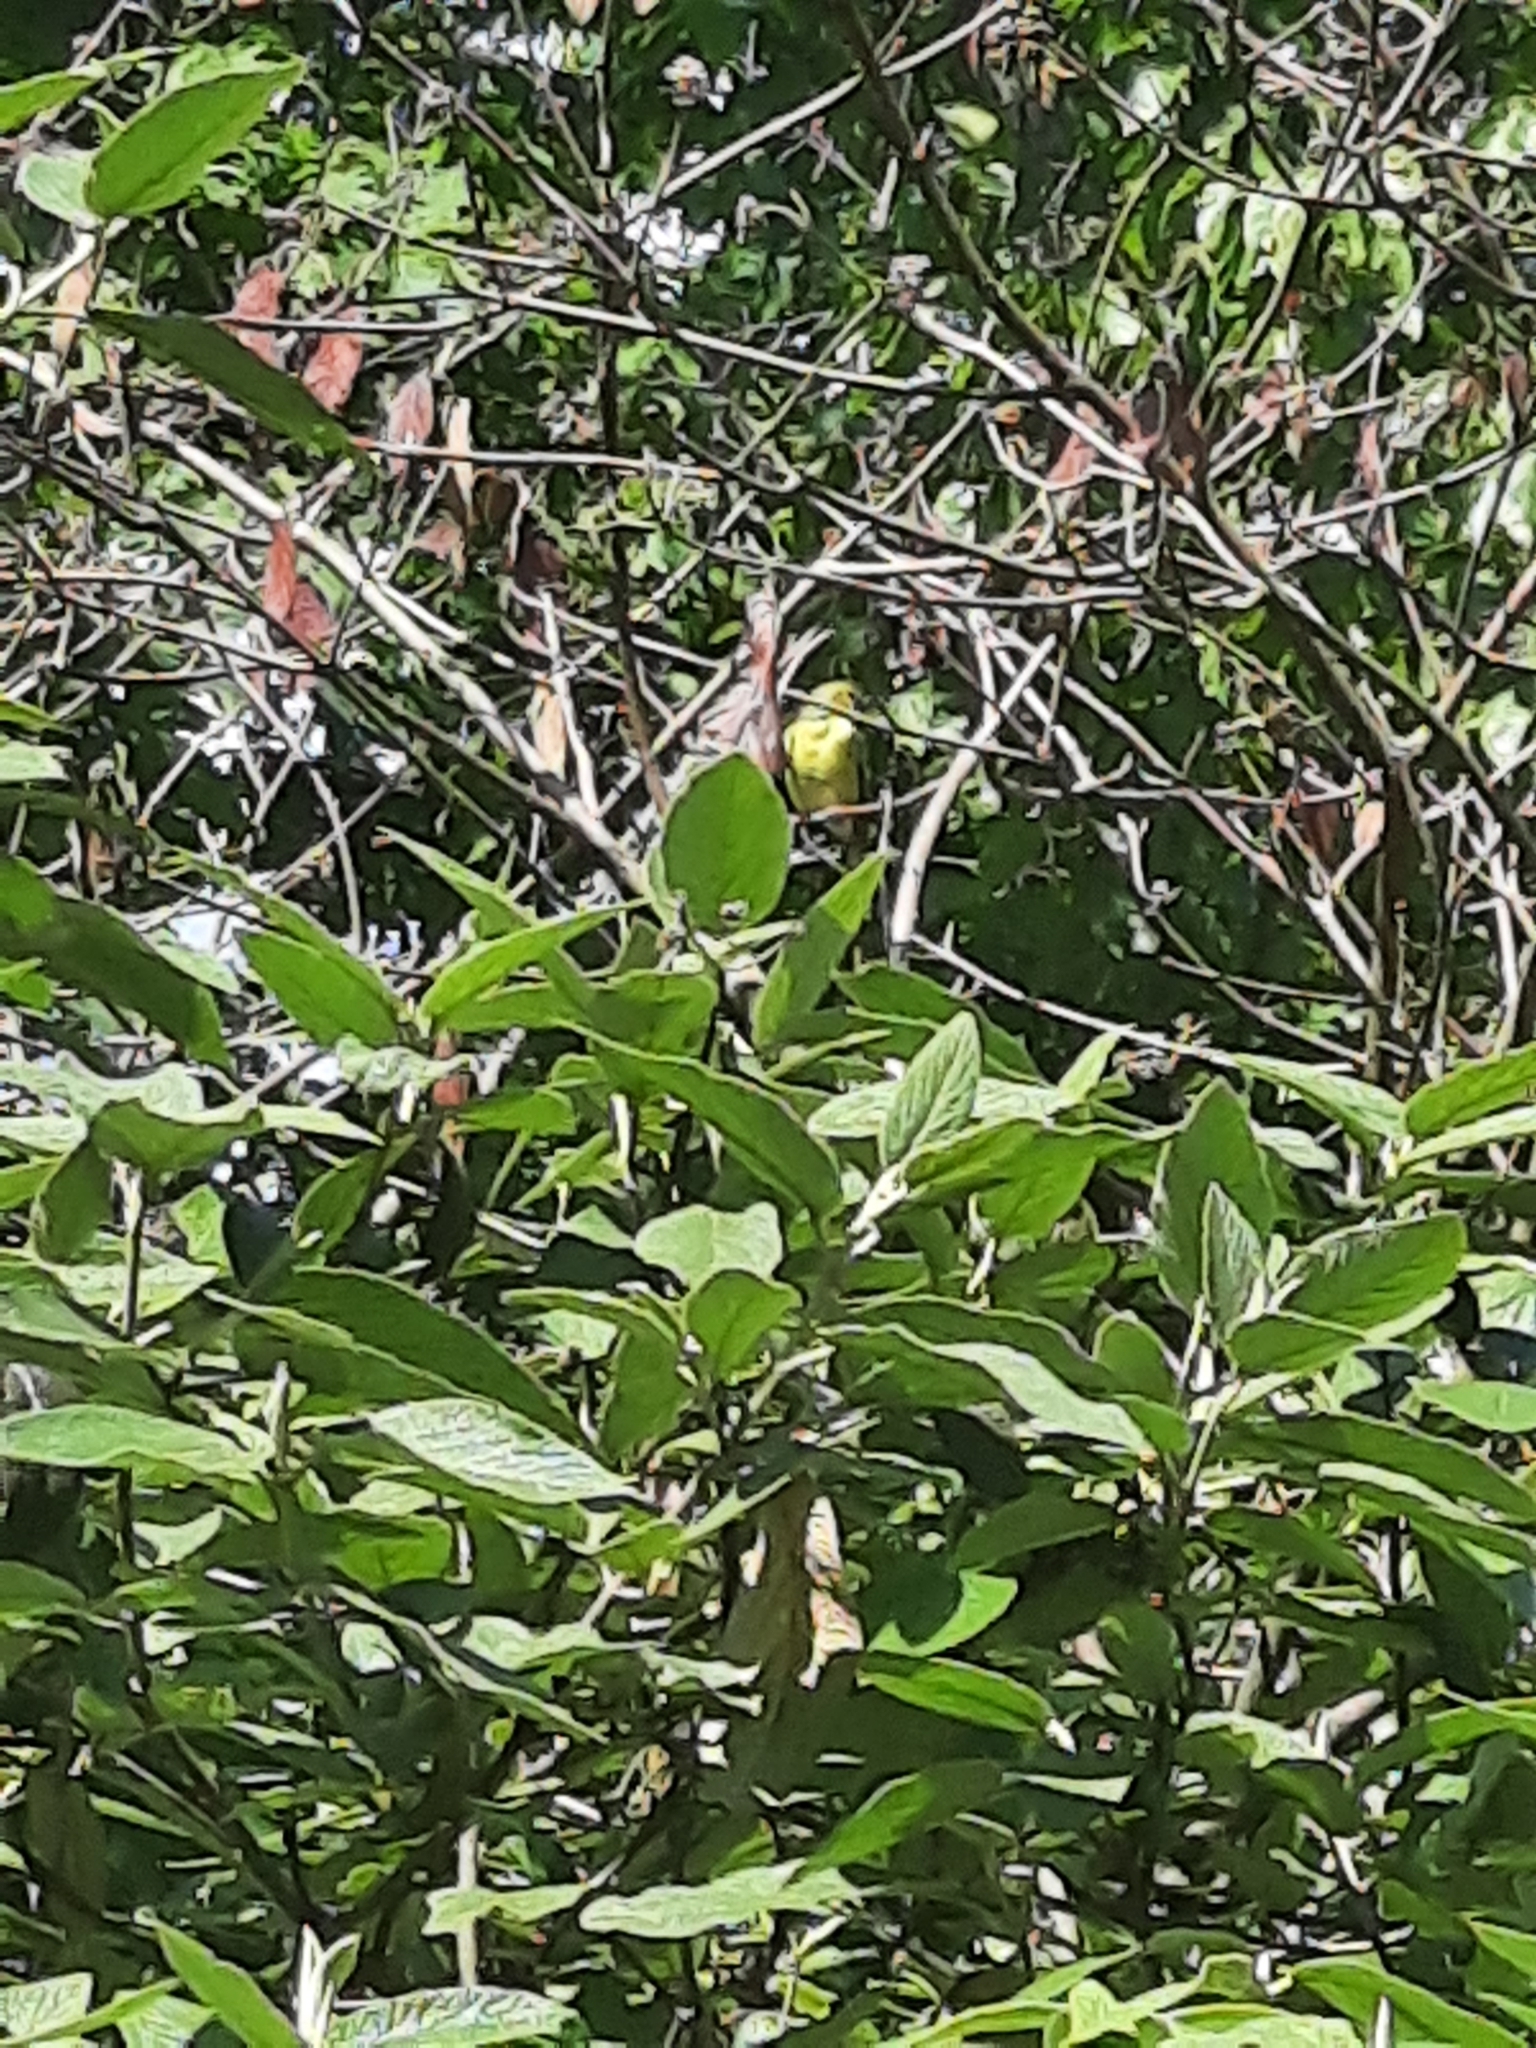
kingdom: Animalia
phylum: Chordata
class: Aves
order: Passeriformes
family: Fringillidae
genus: Spinus
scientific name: Spinus tristis
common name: American goldfinch
